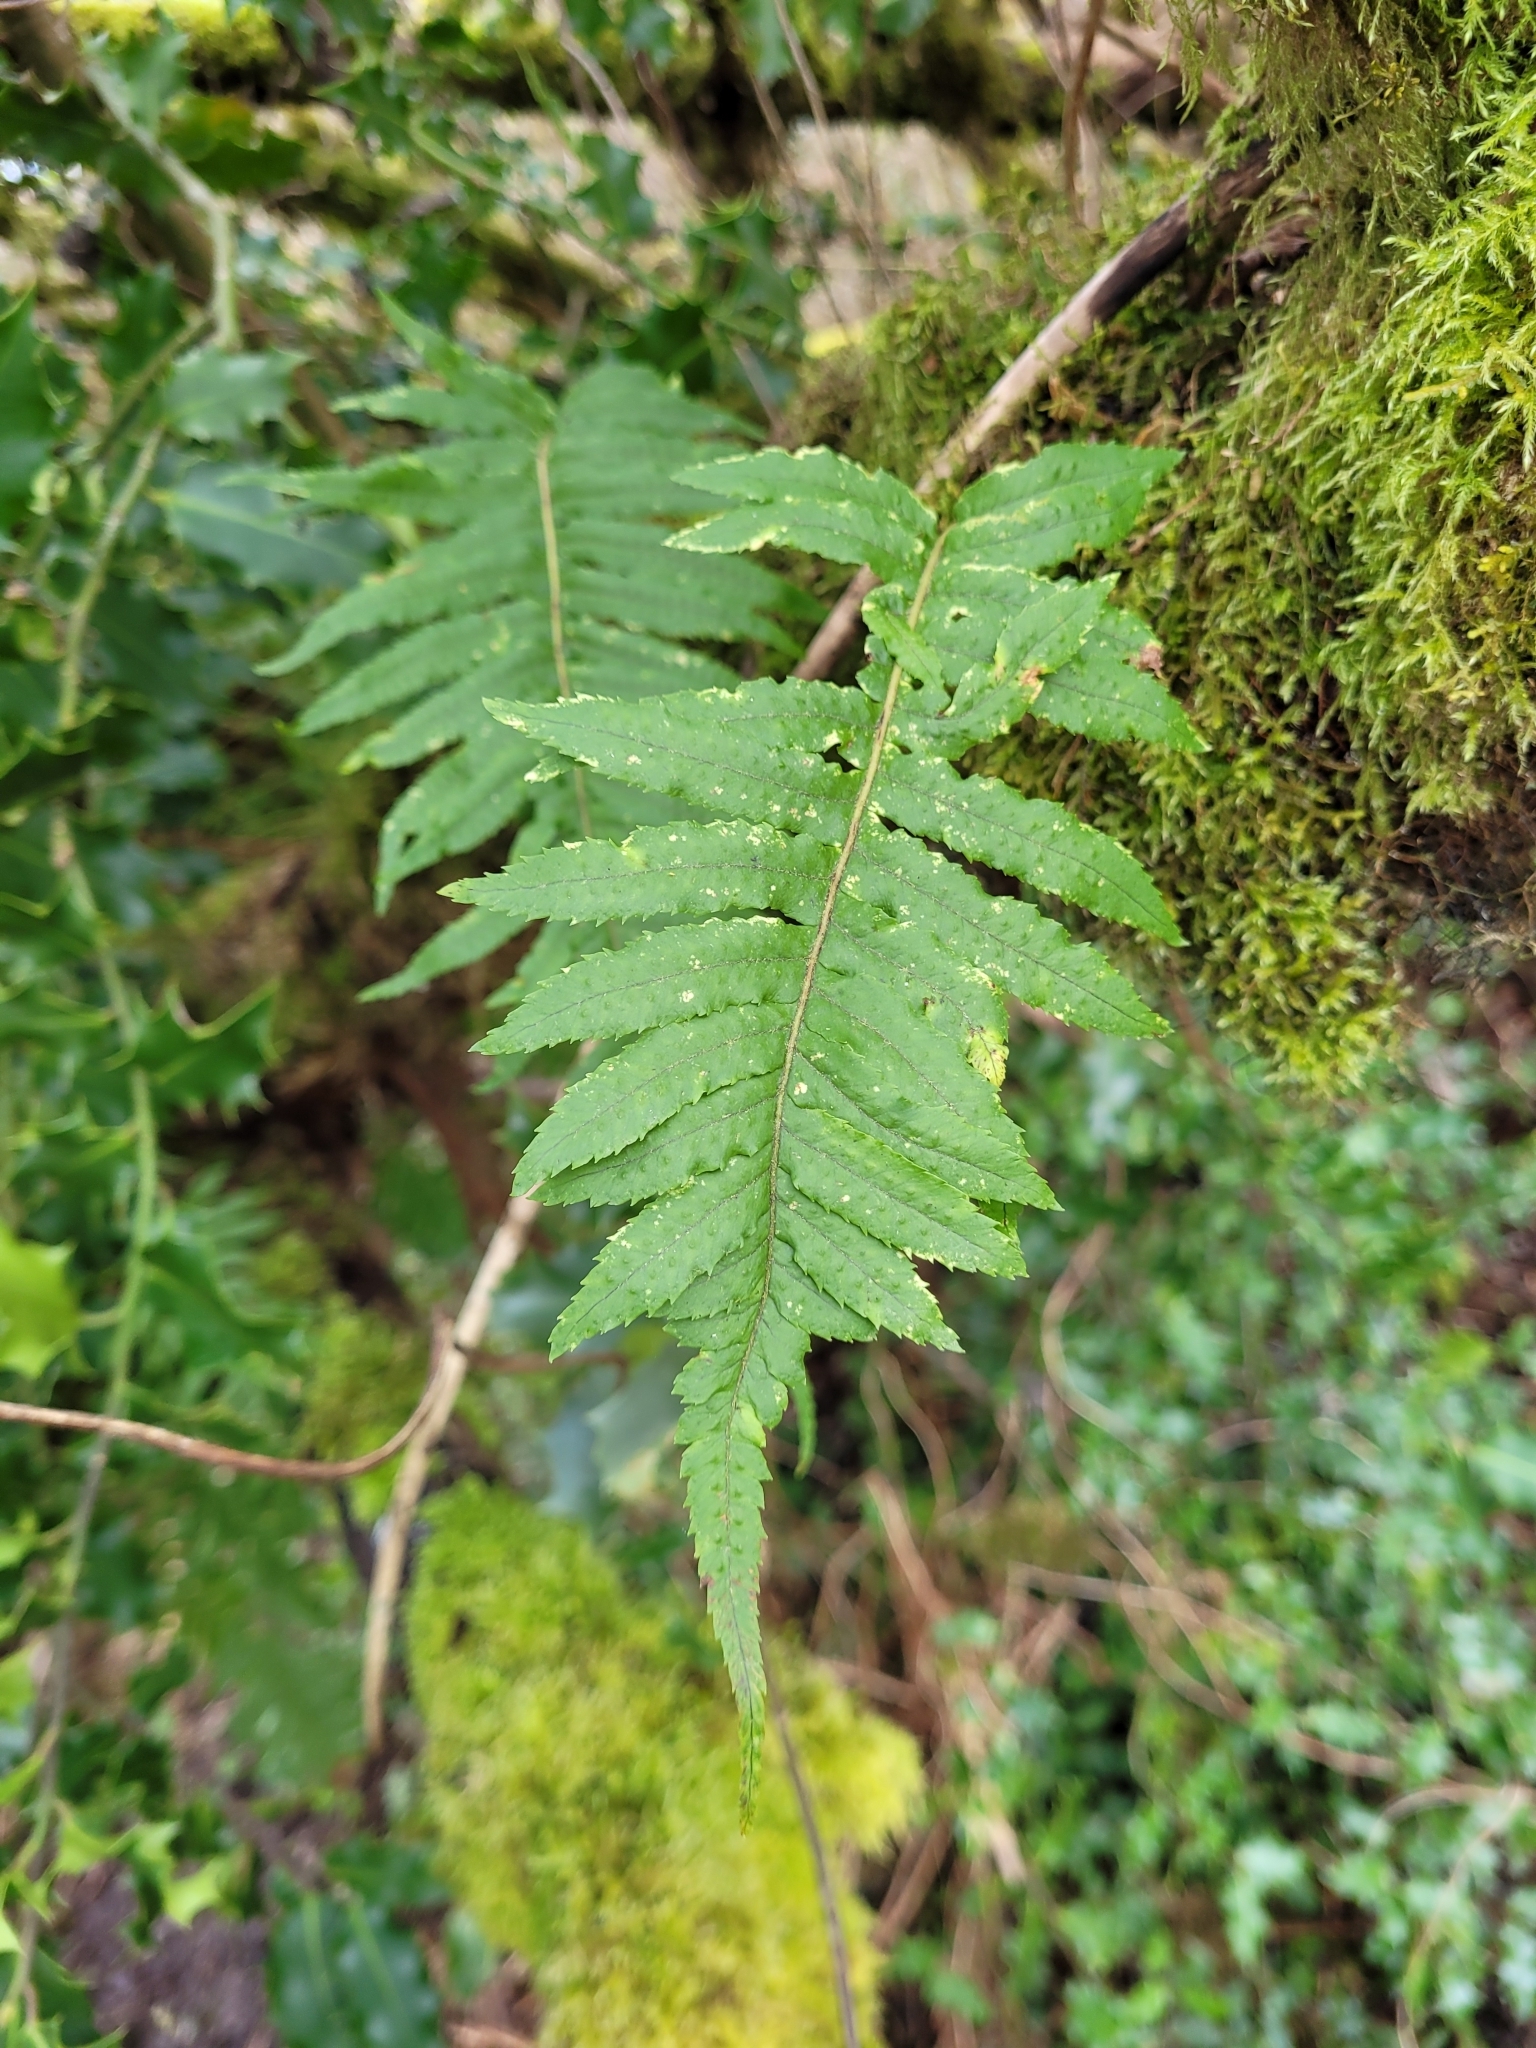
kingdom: Plantae
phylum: Tracheophyta
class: Polypodiopsida
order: Polypodiales
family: Polypodiaceae
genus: Polypodium
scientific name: Polypodium glycyrrhiza
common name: Licorice fern
